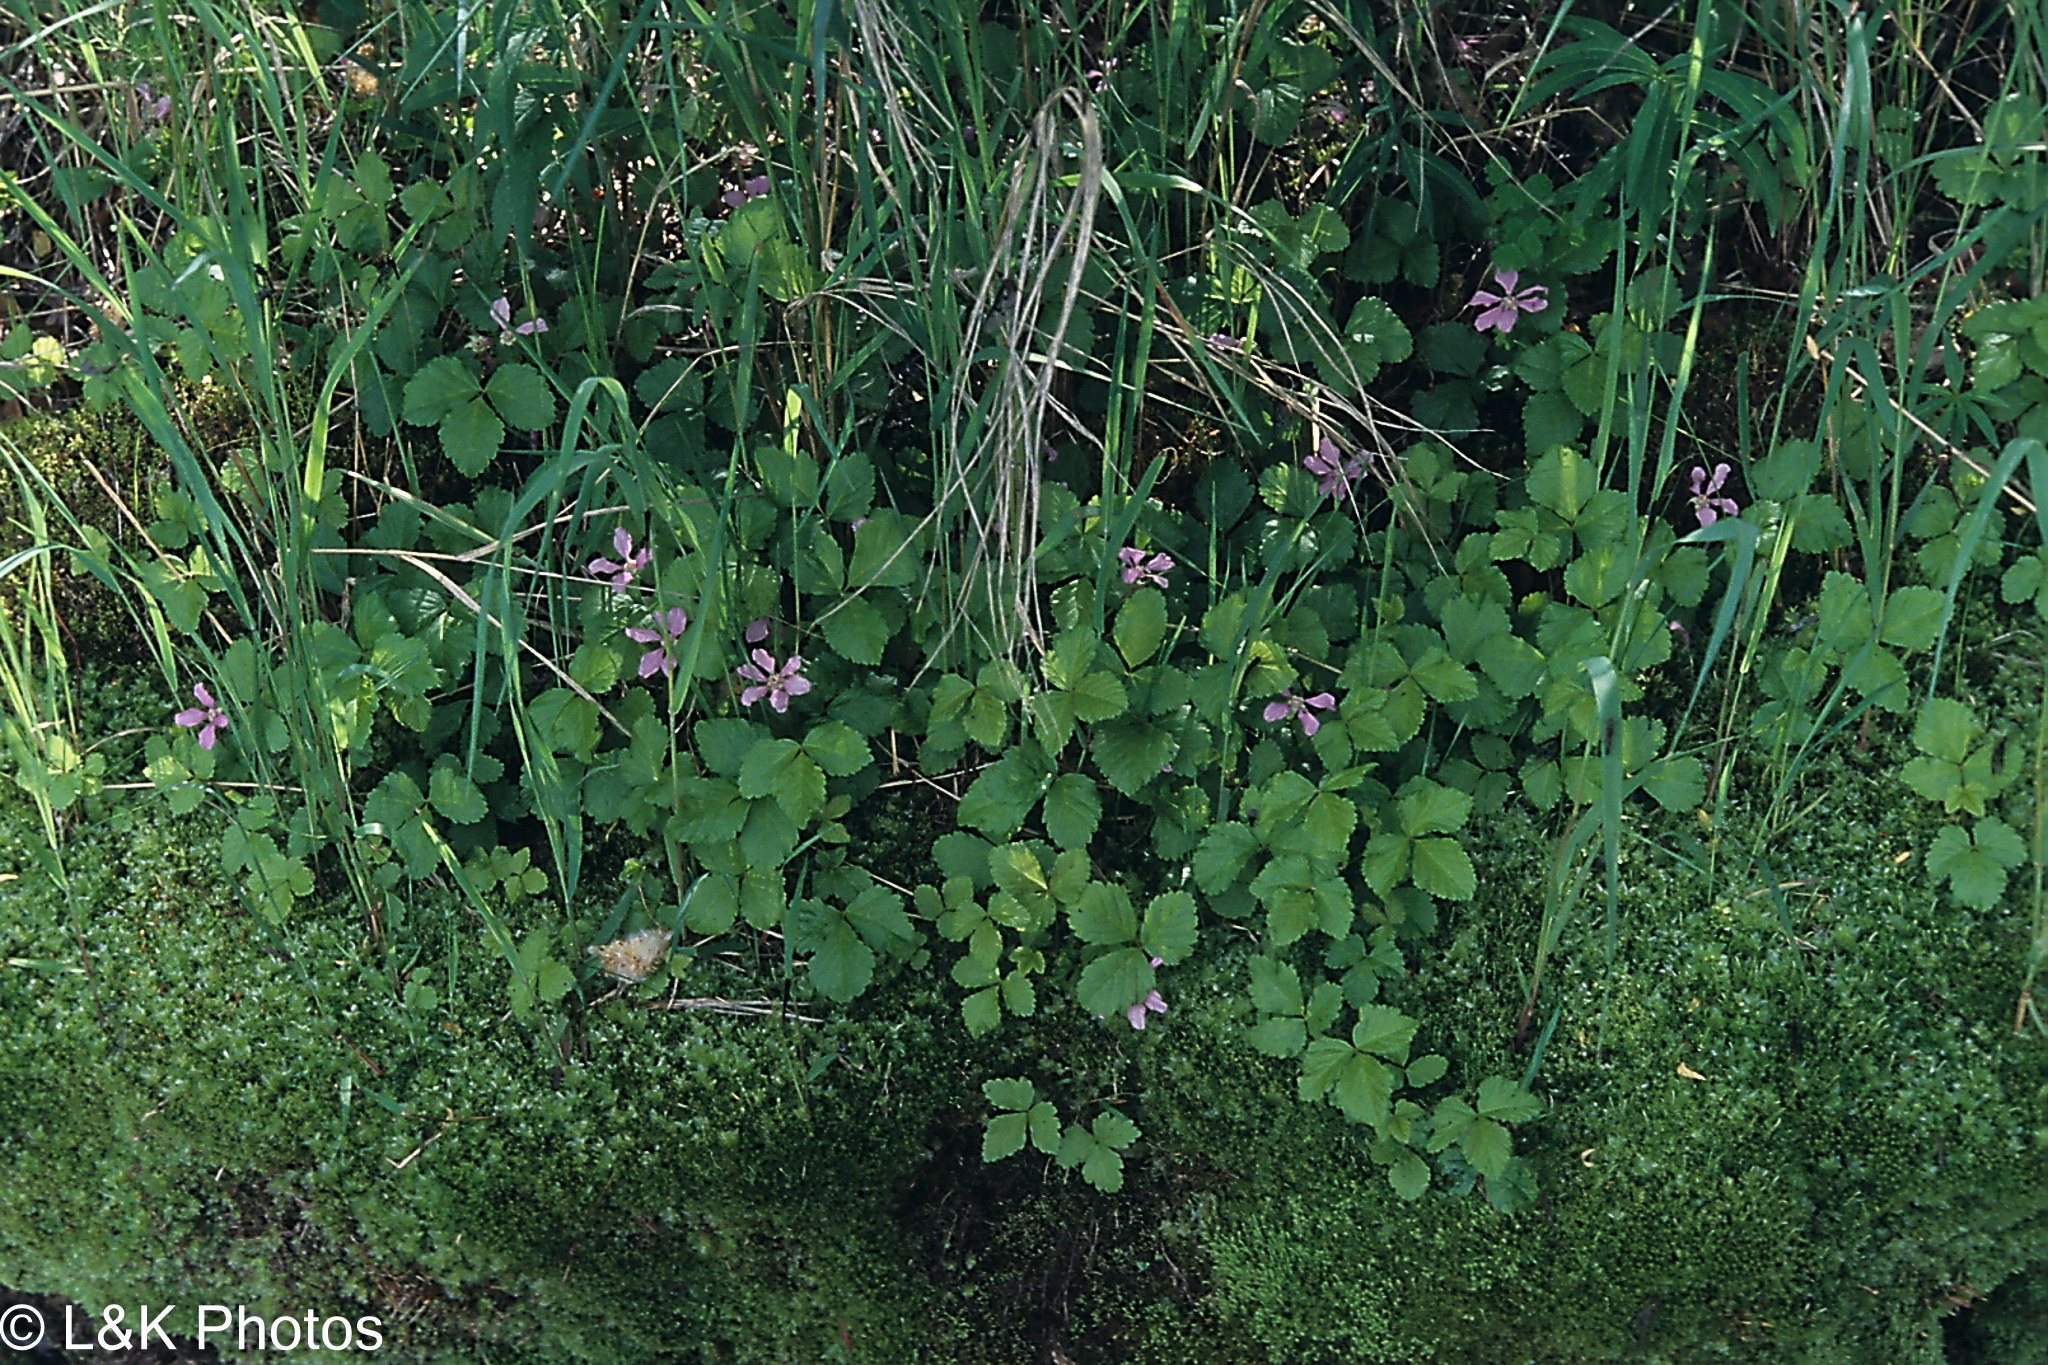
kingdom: Plantae
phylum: Tracheophyta
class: Magnoliopsida
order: Rosales
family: Rosaceae
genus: Rubus
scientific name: Rubus arcticus
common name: Arctic bramble
